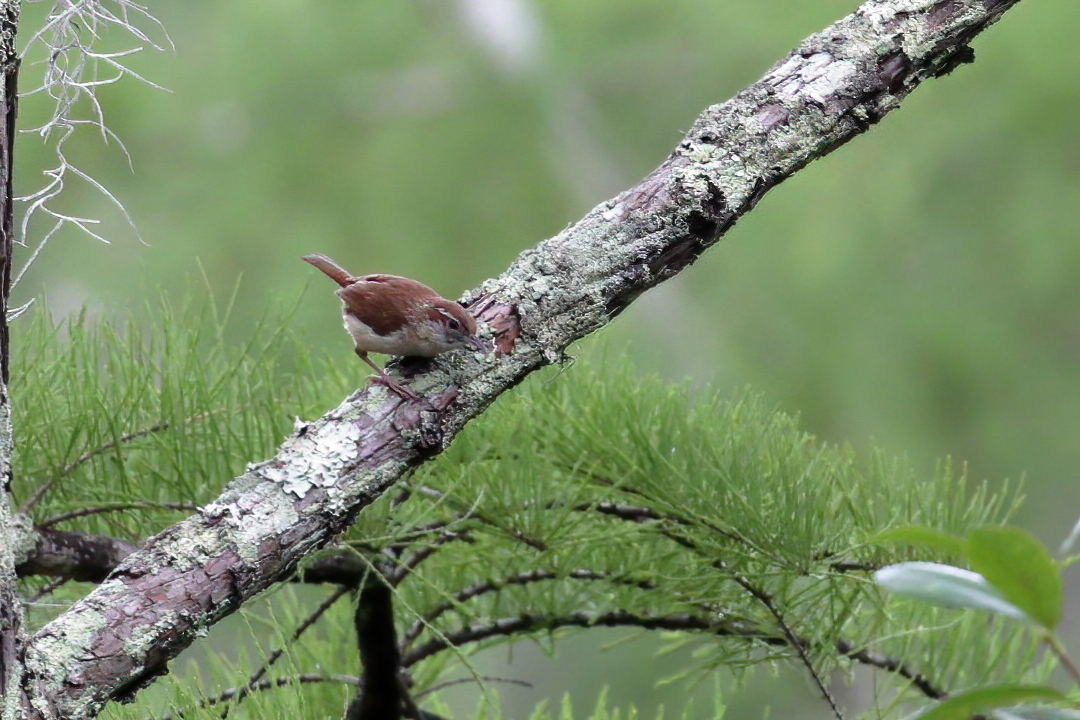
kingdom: Animalia
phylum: Chordata
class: Aves
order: Passeriformes
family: Troglodytidae
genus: Thryothorus
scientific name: Thryothorus ludovicianus
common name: Carolina wren
